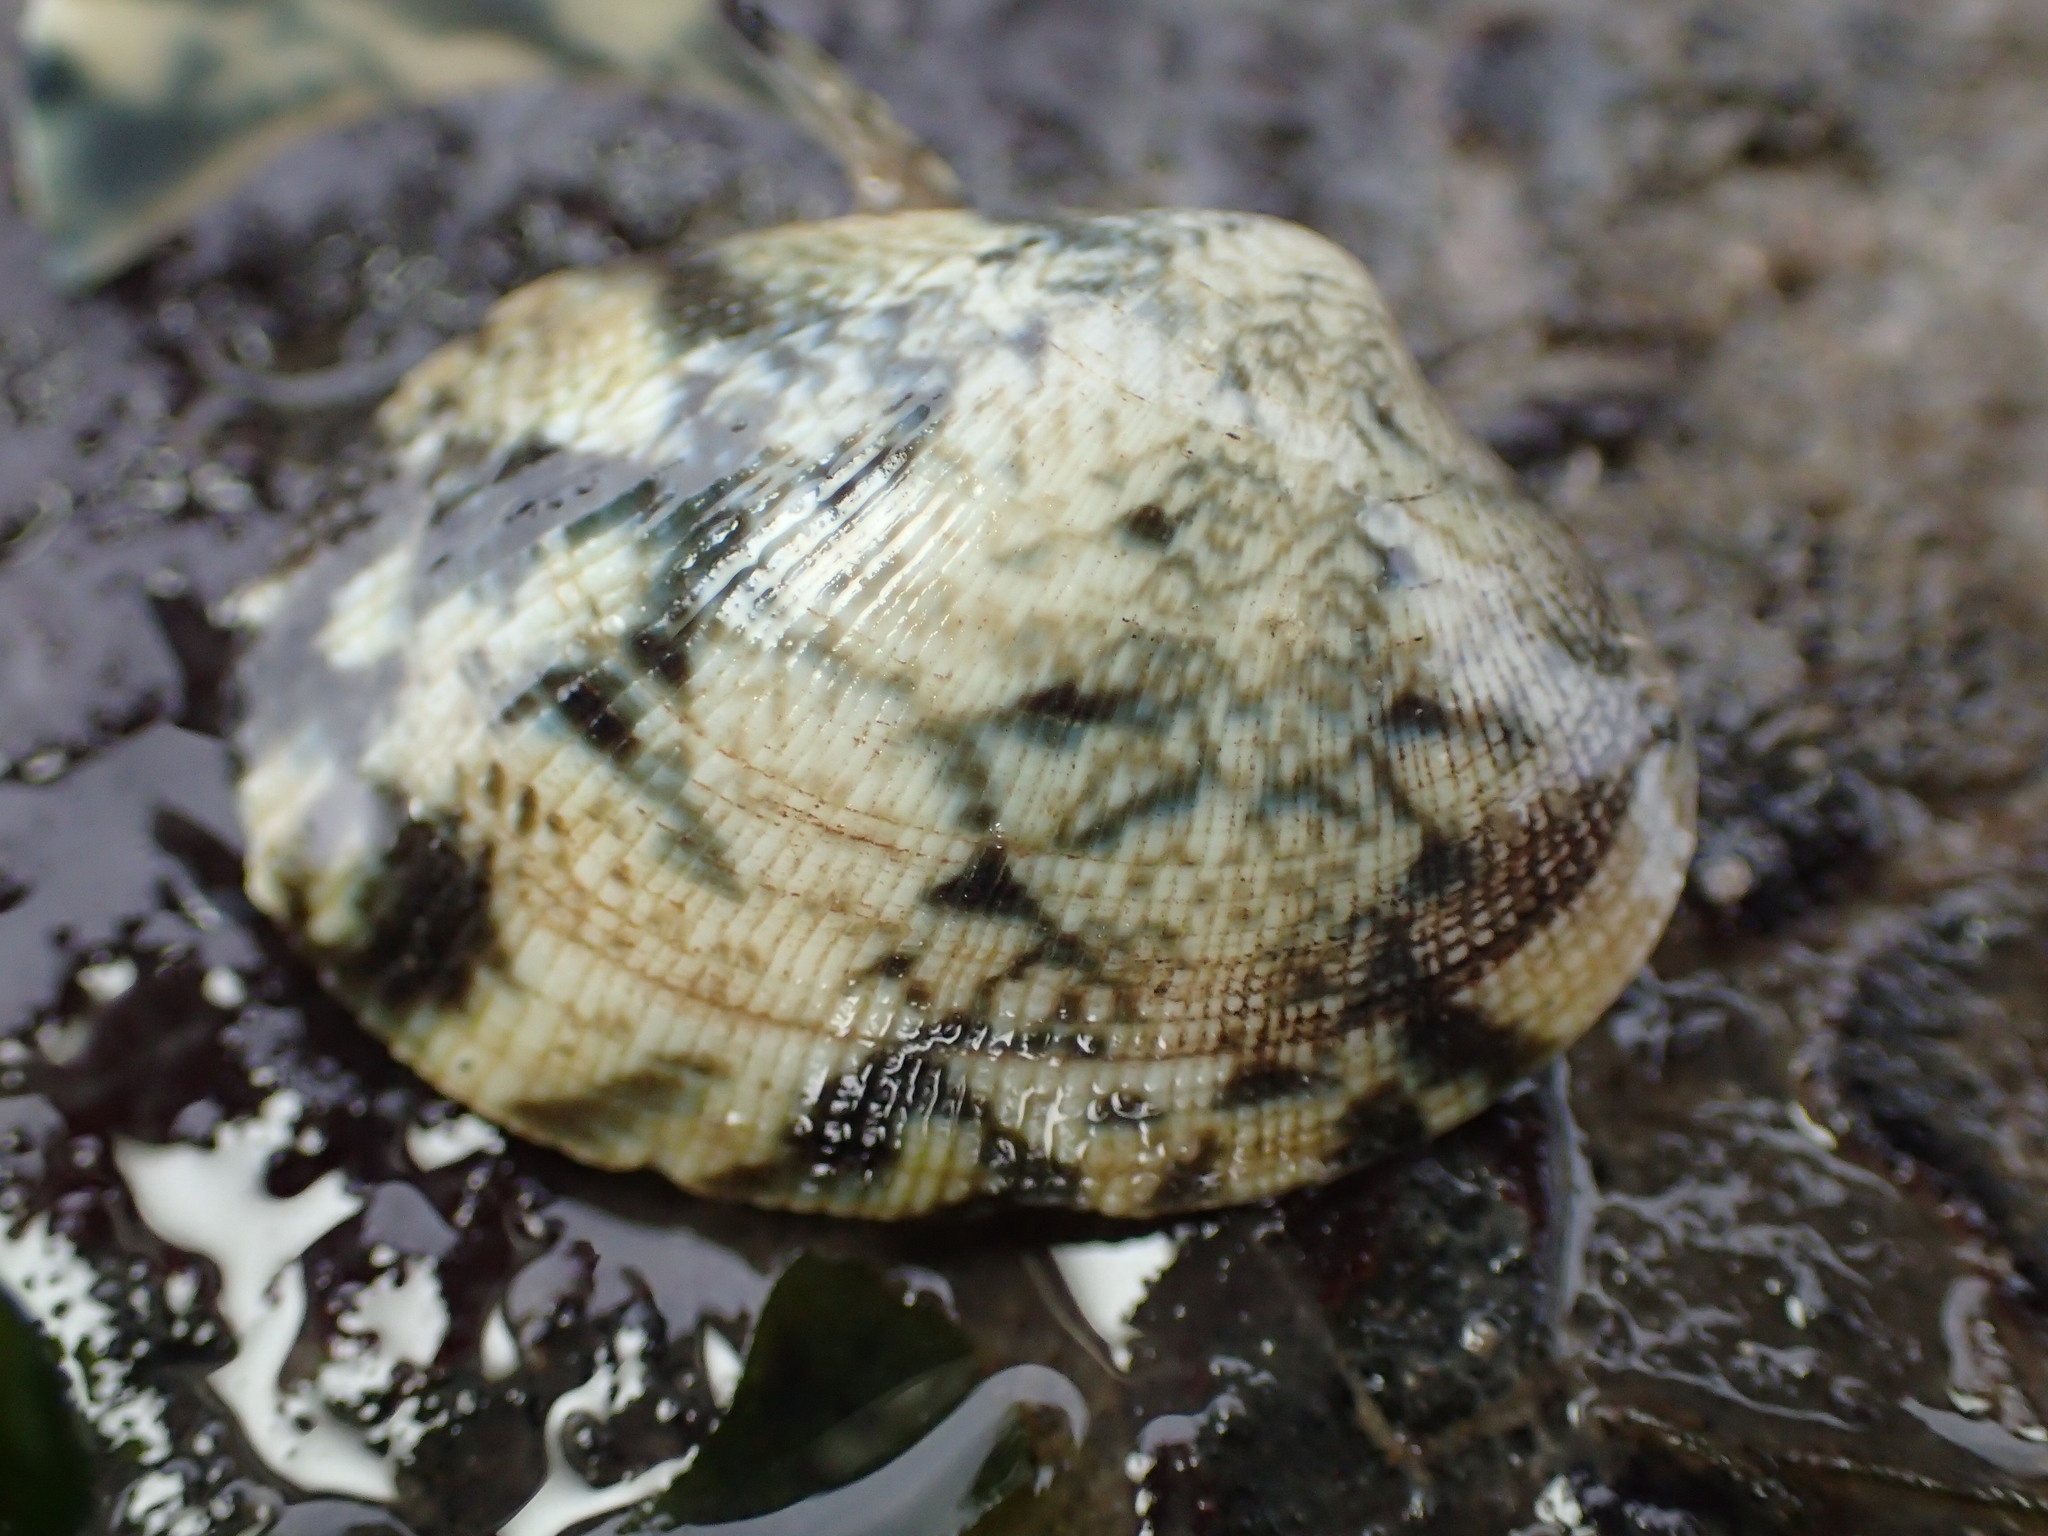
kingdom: Animalia
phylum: Mollusca
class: Bivalvia
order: Venerida
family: Veneridae
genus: Ruditapes
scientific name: Ruditapes philippinarum
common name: Manila clam
